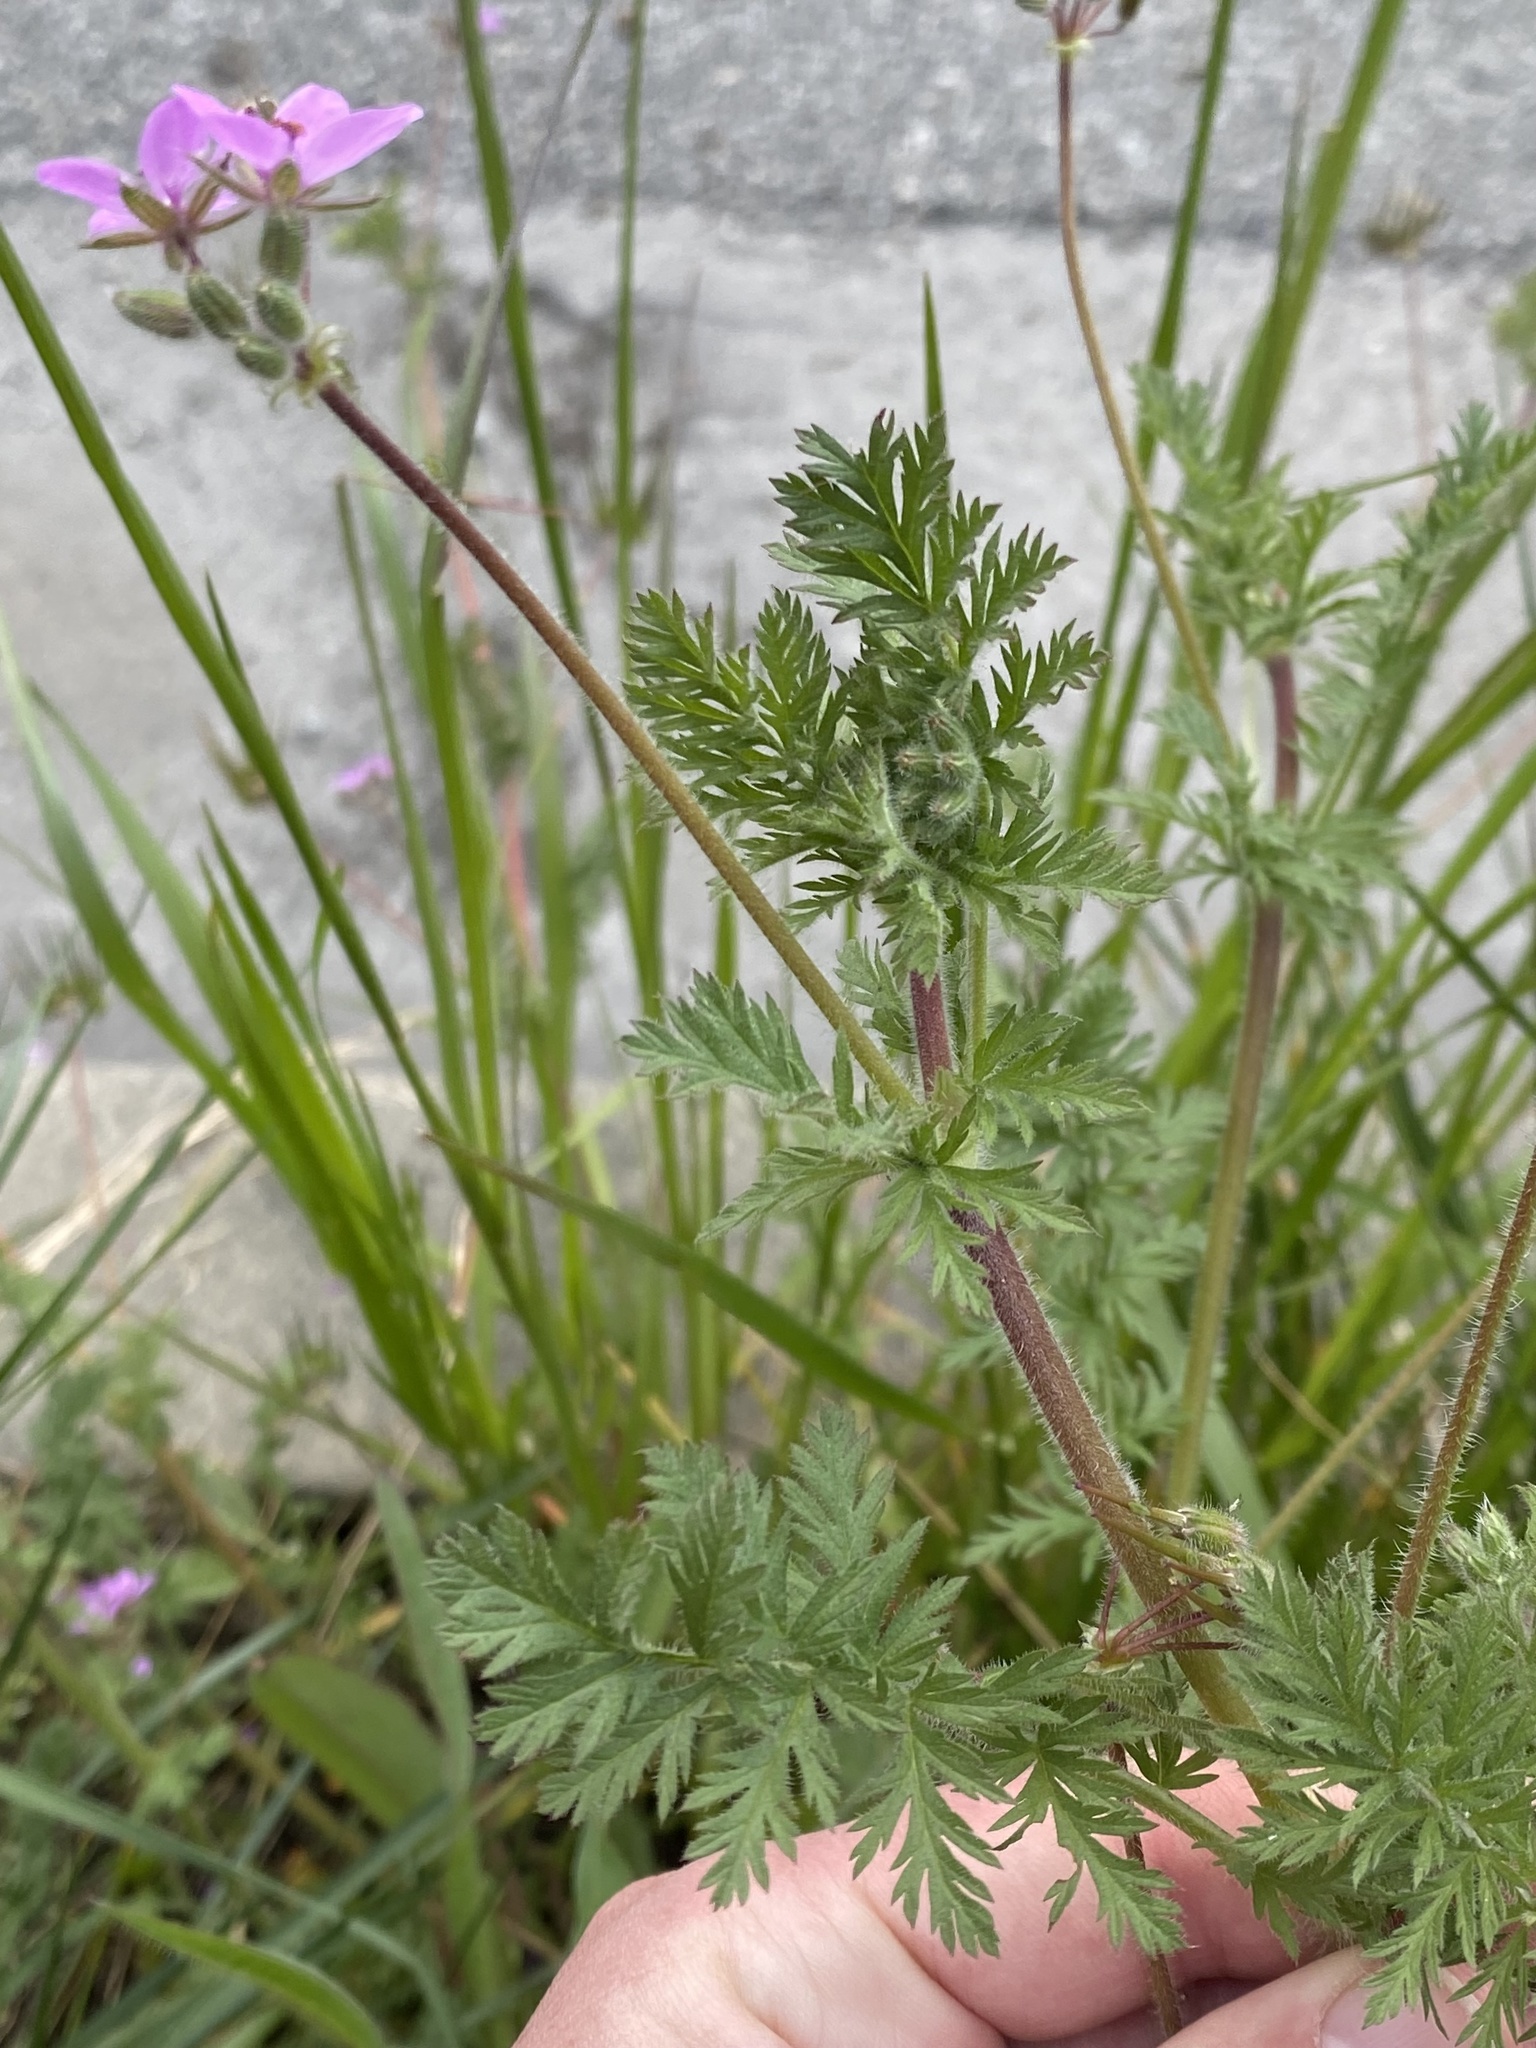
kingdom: Plantae
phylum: Tracheophyta
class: Magnoliopsida
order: Geraniales
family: Geraniaceae
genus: Erodium
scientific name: Erodium cicutarium
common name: Common stork's-bill
